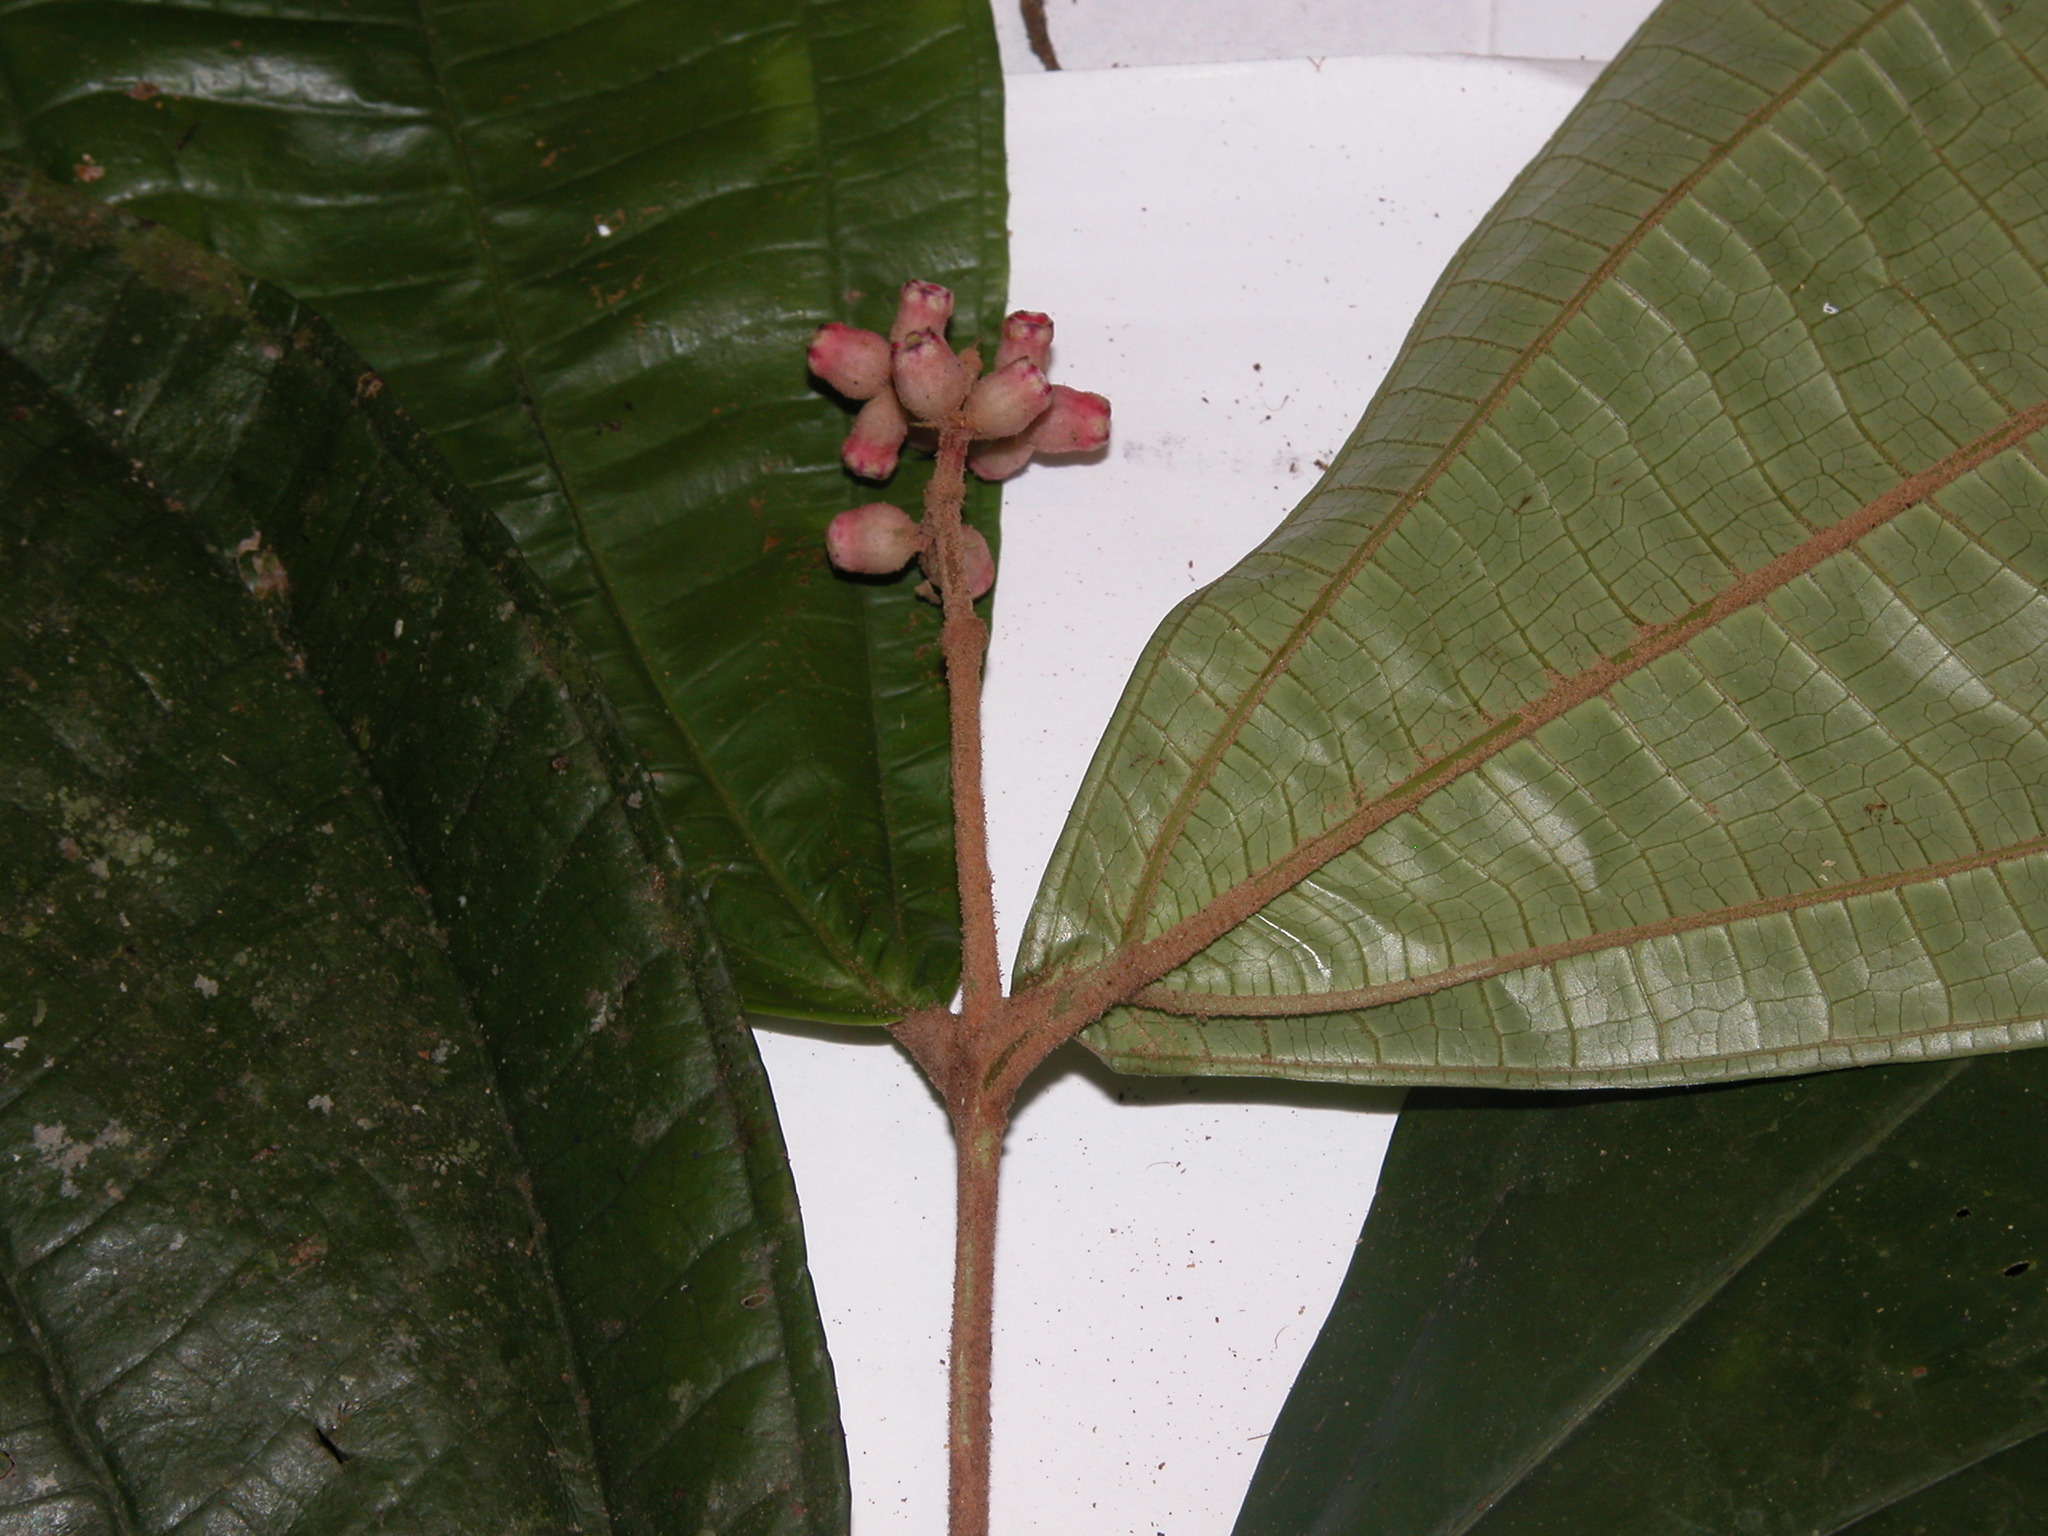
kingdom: Plantae
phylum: Tracheophyta
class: Magnoliopsida
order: Myrtales
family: Melastomataceae
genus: Miconia
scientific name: Miconia simplex
